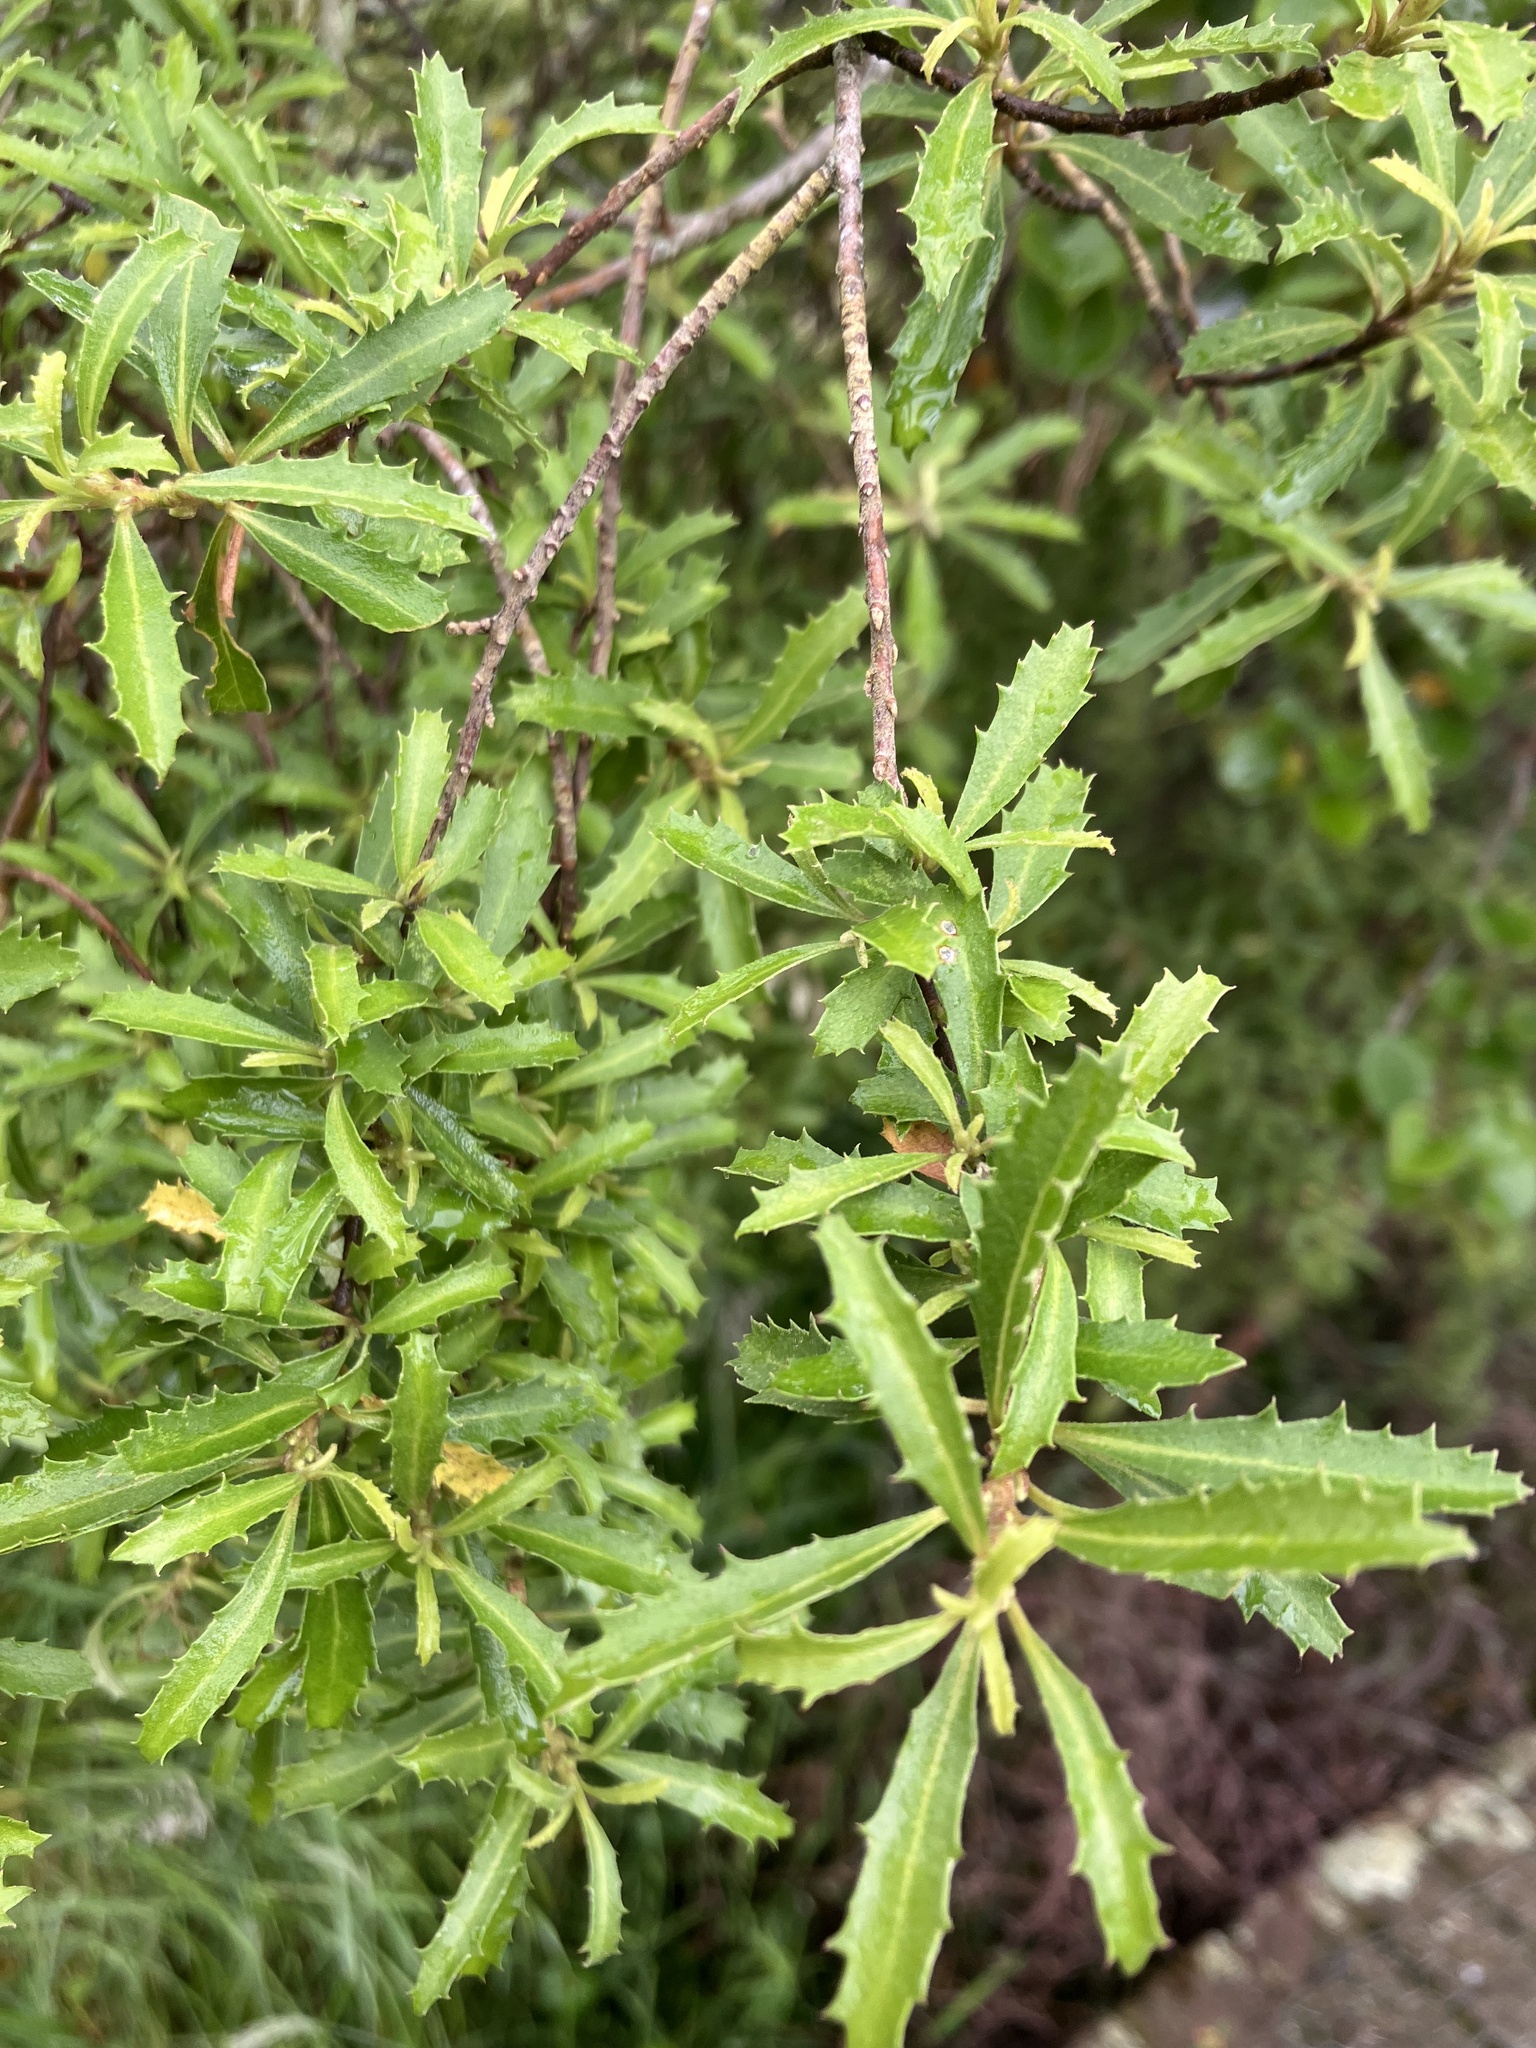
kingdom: Plantae
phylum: Tracheophyta
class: Magnoliopsida
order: Malvales
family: Malvaceae
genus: Hoheria
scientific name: Hoheria angustifolia
